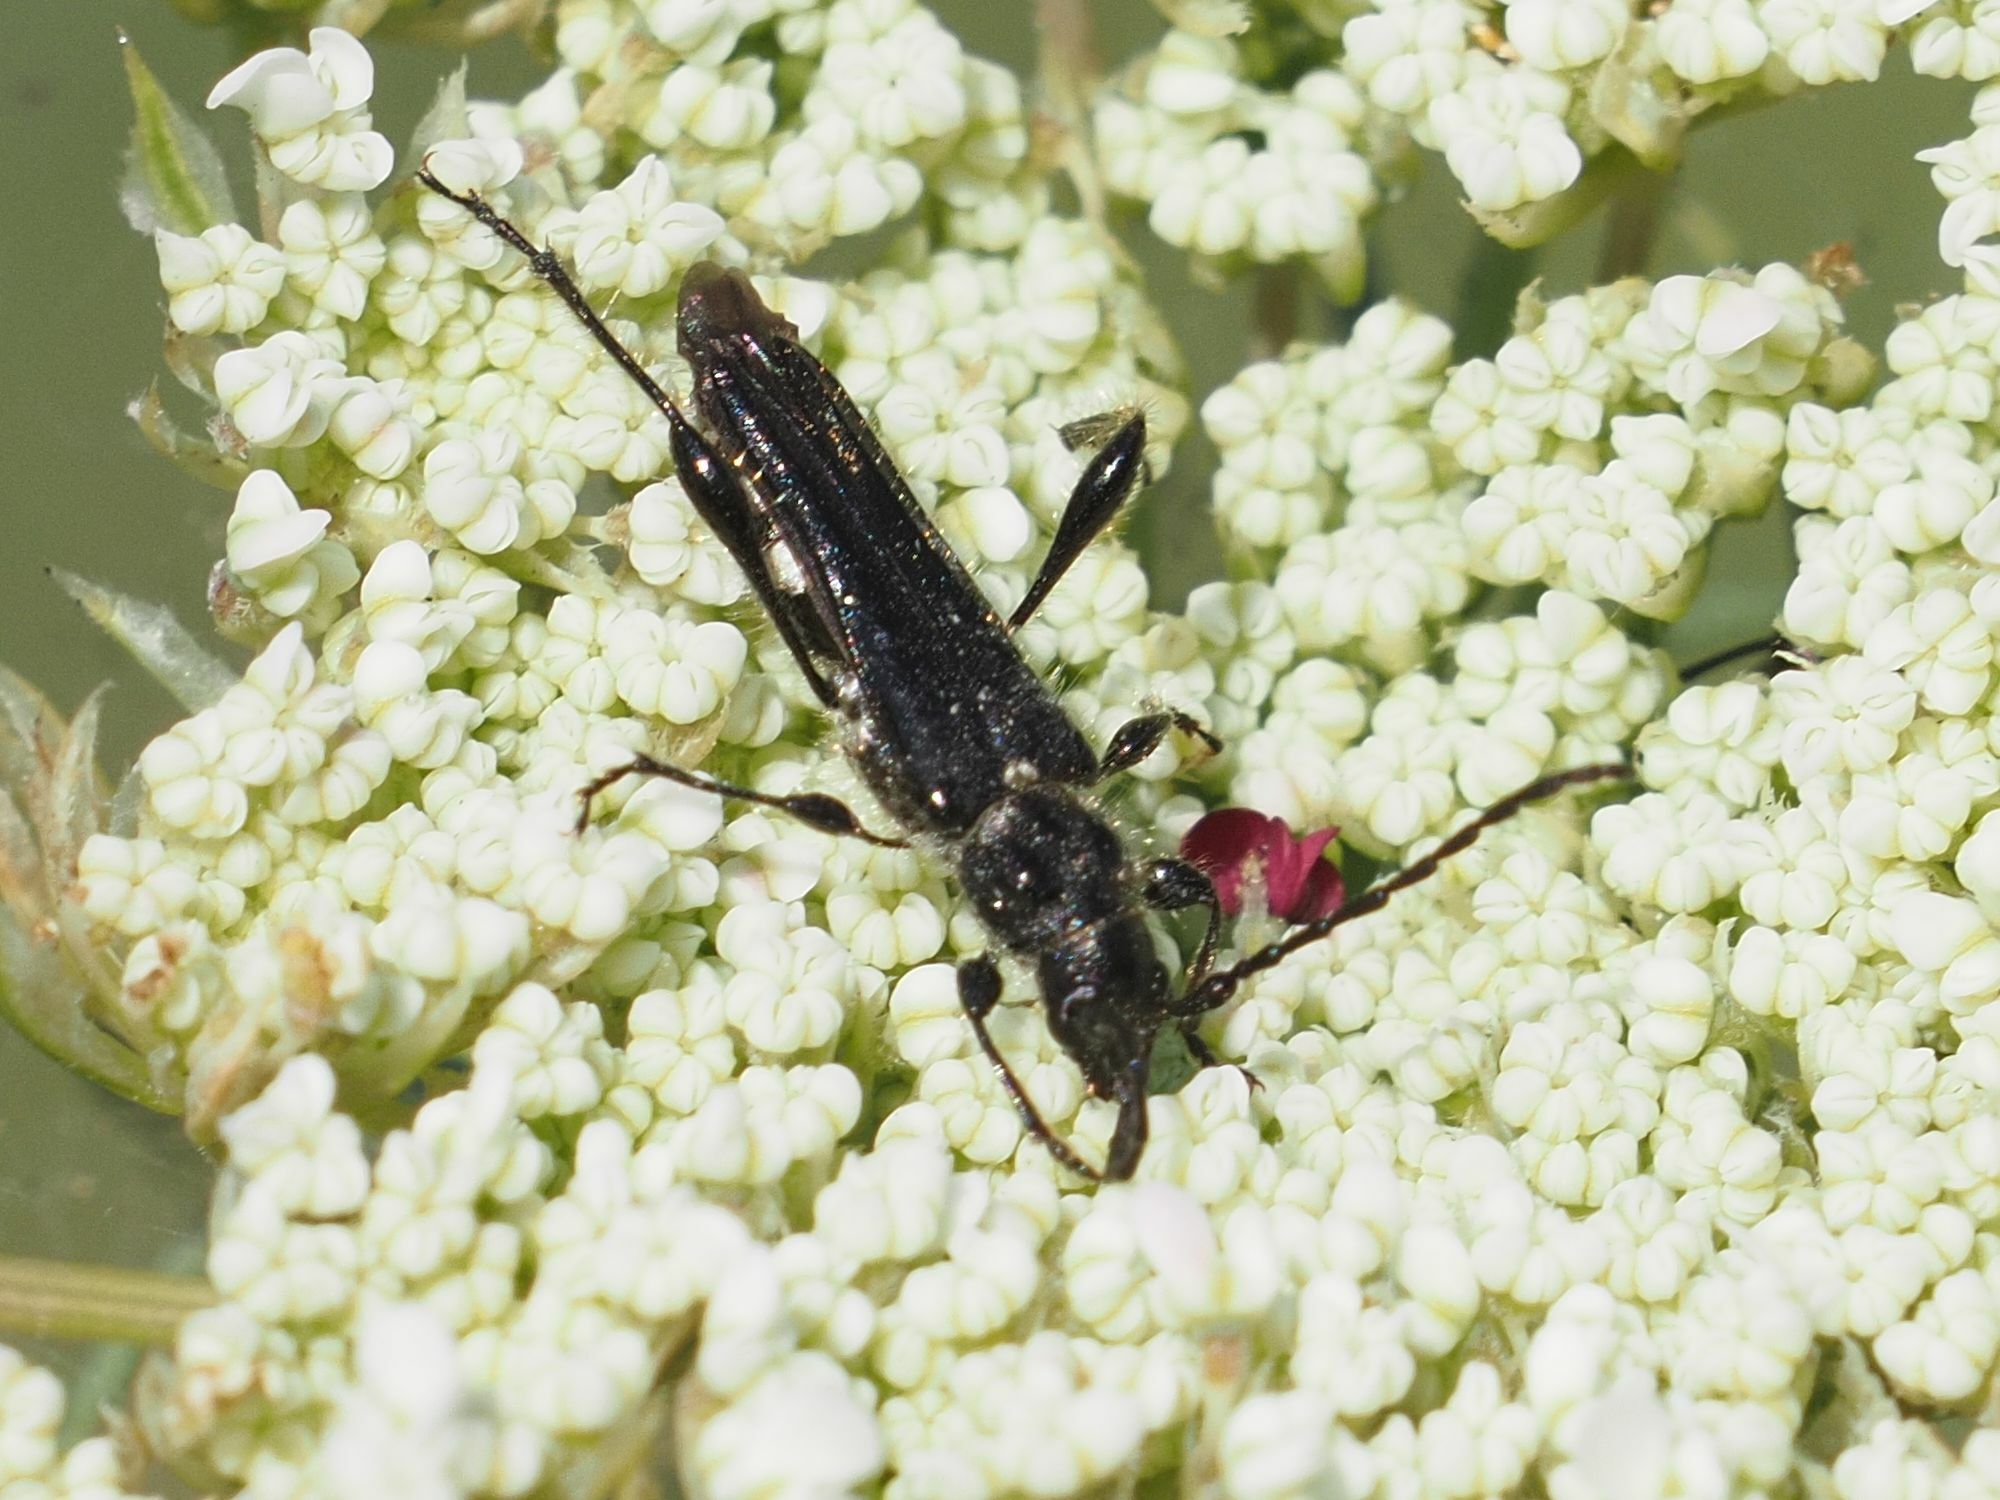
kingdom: Animalia
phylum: Arthropoda
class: Insecta
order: Coleoptera
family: Cerambycidae
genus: Stenopterus
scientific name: Stenopterus ater
